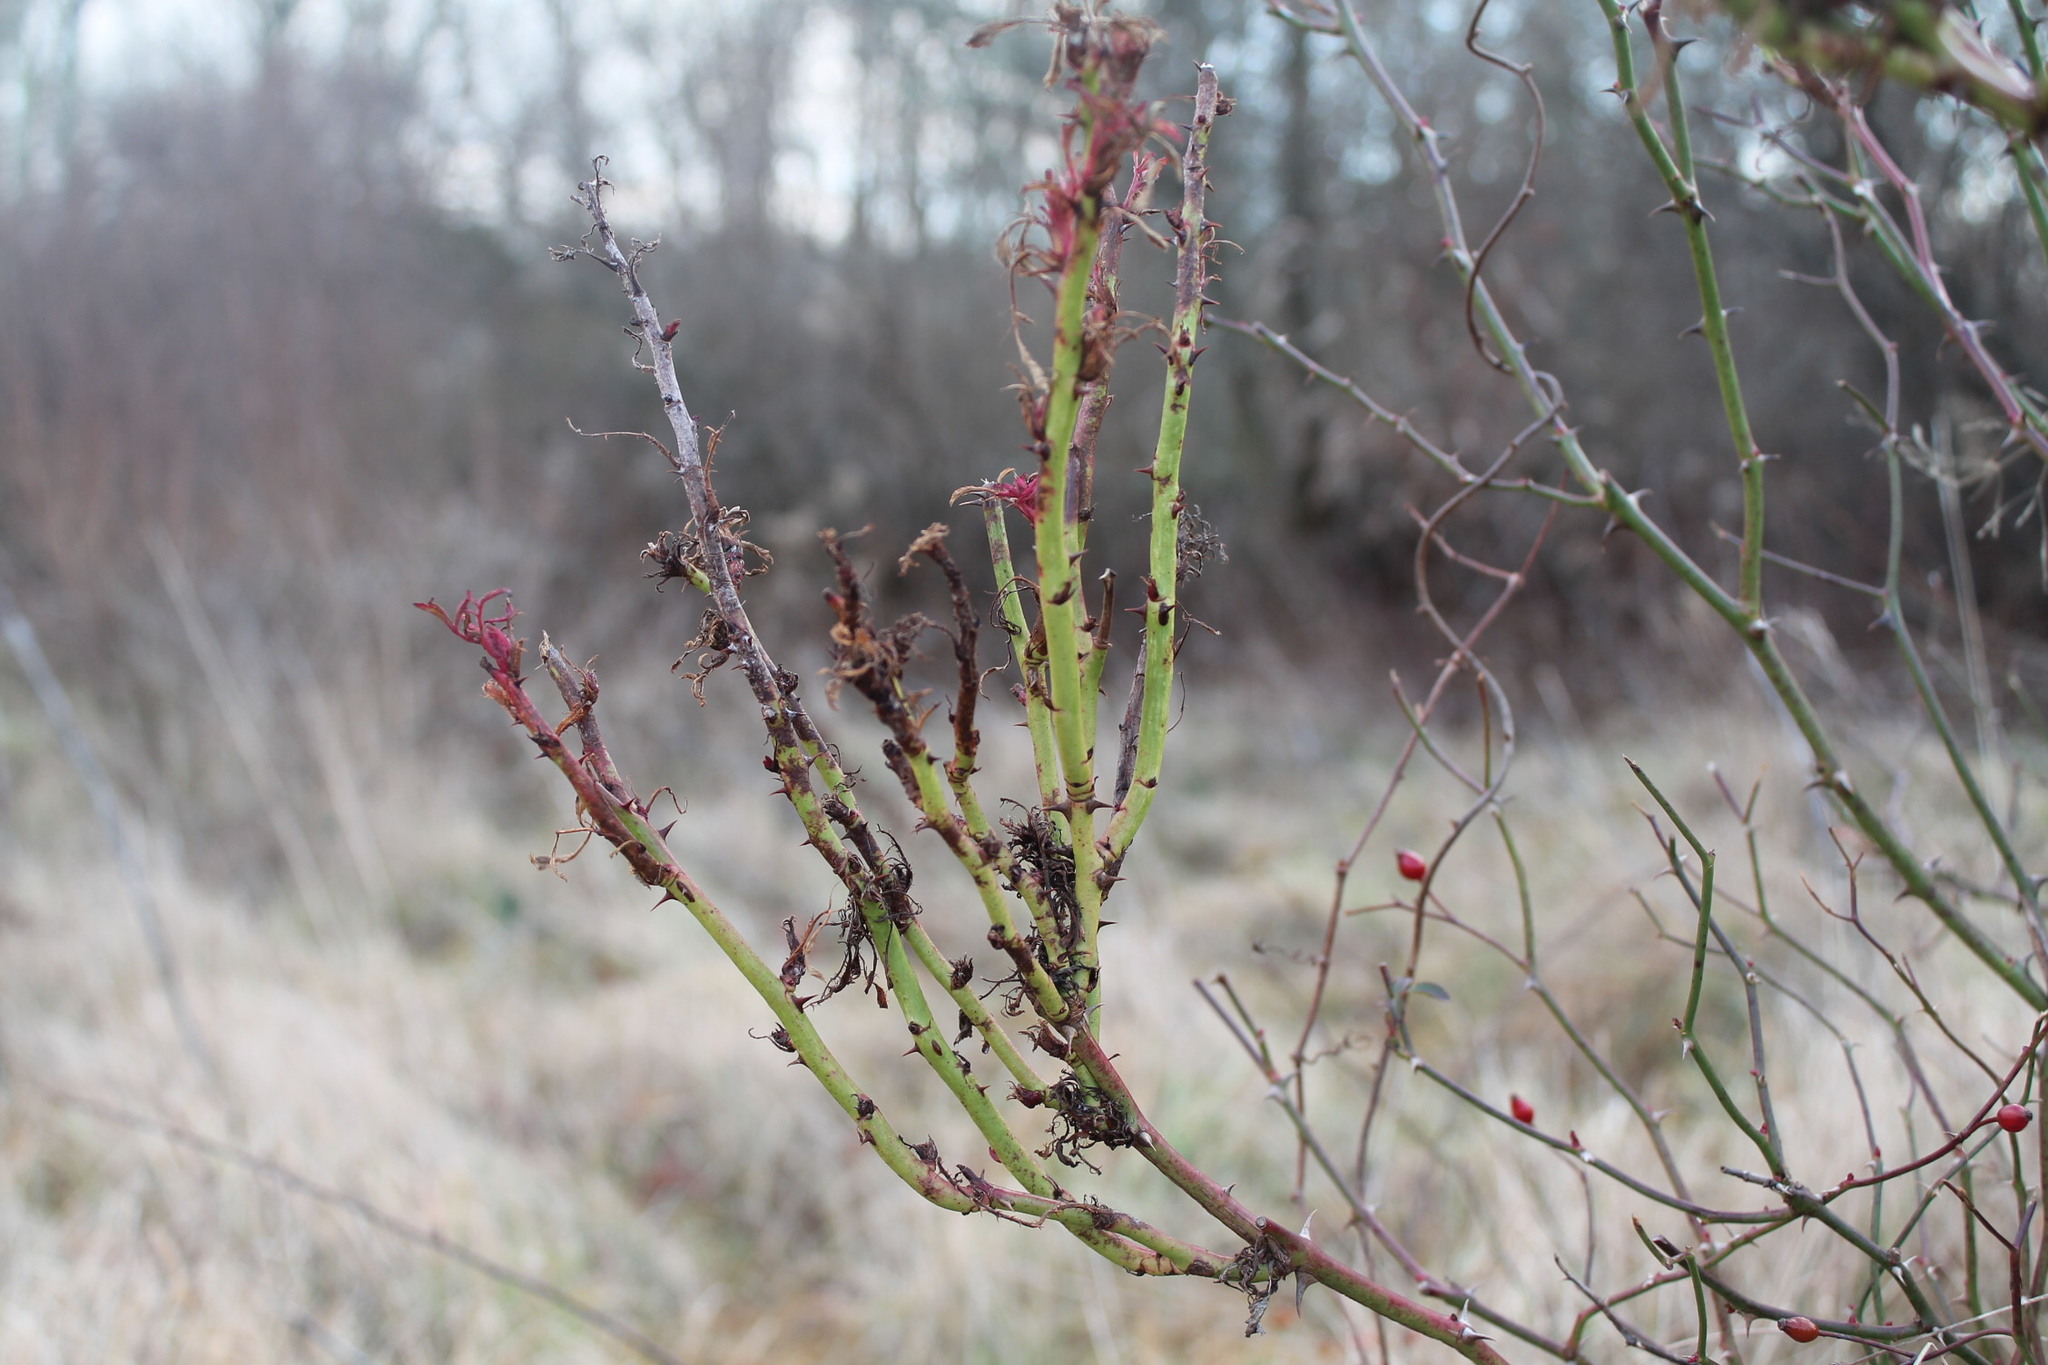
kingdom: Viruses
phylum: Negarnaviricota
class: Ellioviricetes
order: Bunyavirales
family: Fimoviridae
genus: Emaravirus
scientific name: Emaravirus rosae
